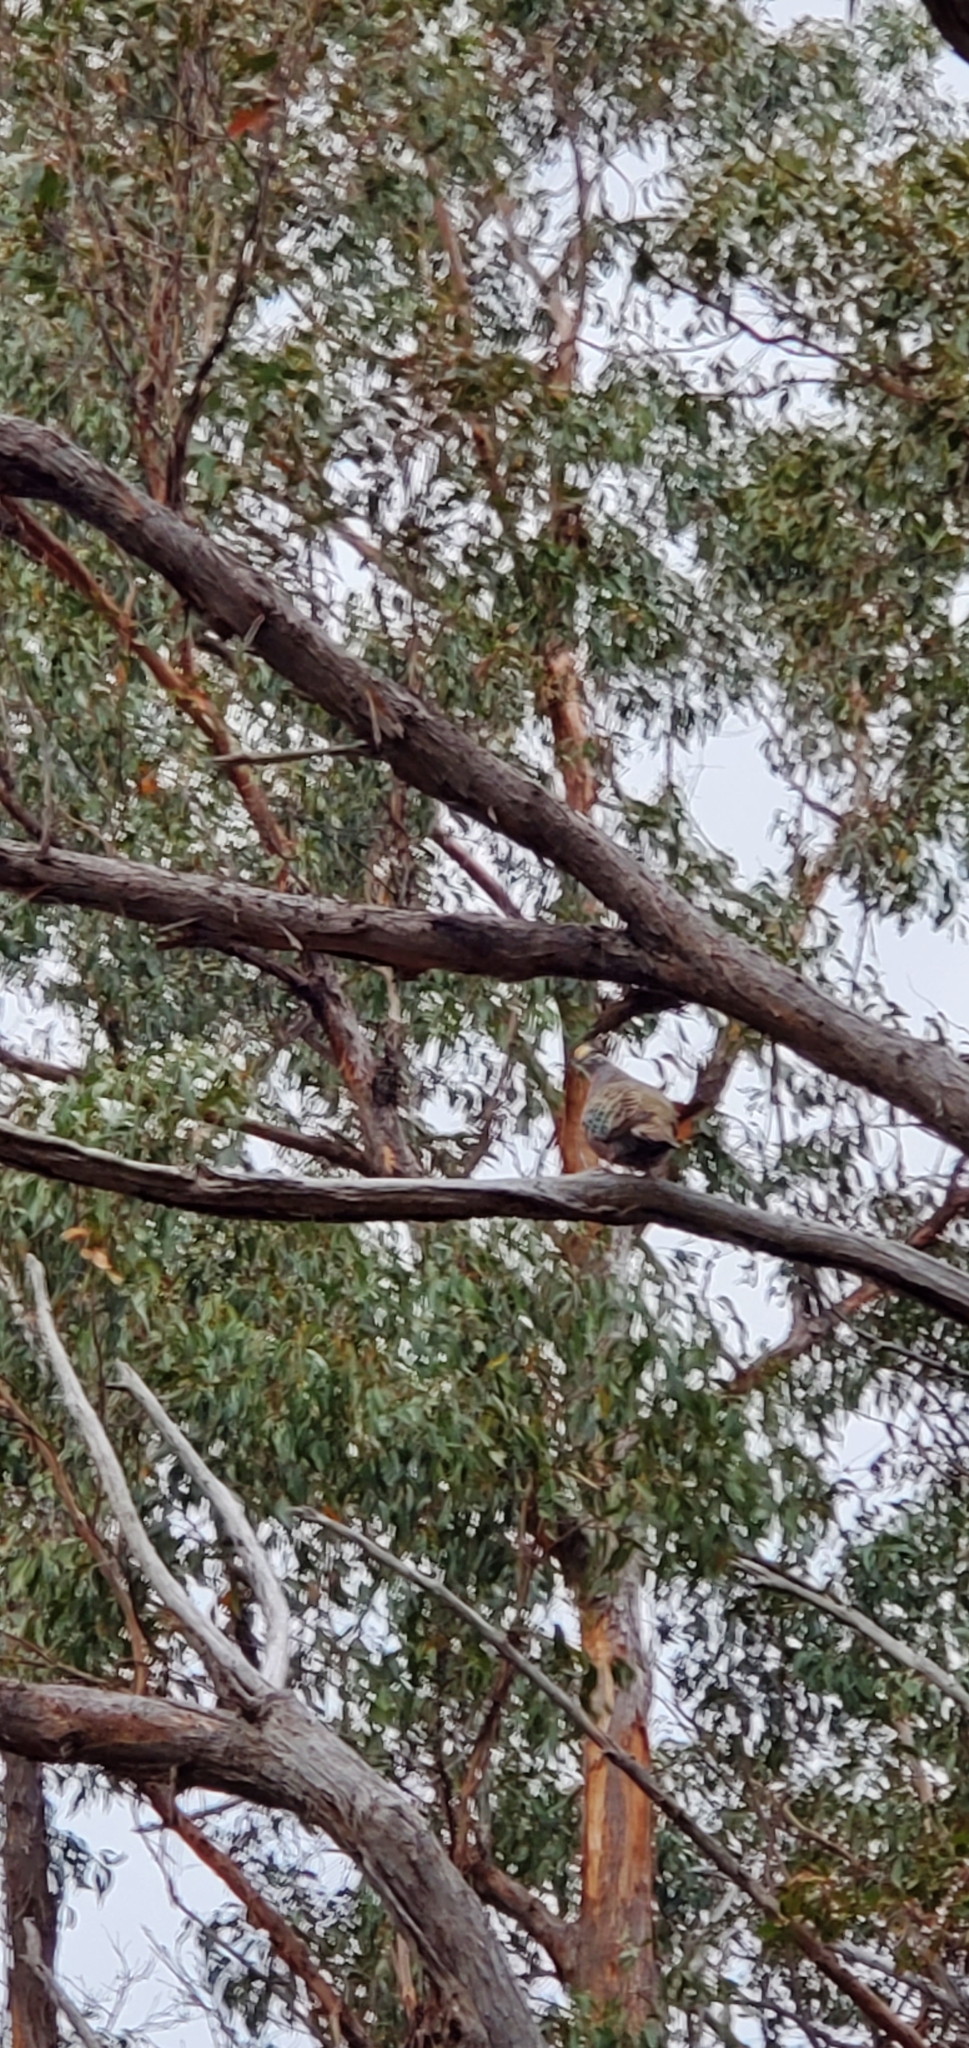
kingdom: Animalia
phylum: Chordata
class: Aves
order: Columbiformes
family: Columbidae
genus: Phaps
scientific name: Phaps chalcoptera
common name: Common bronzewing
